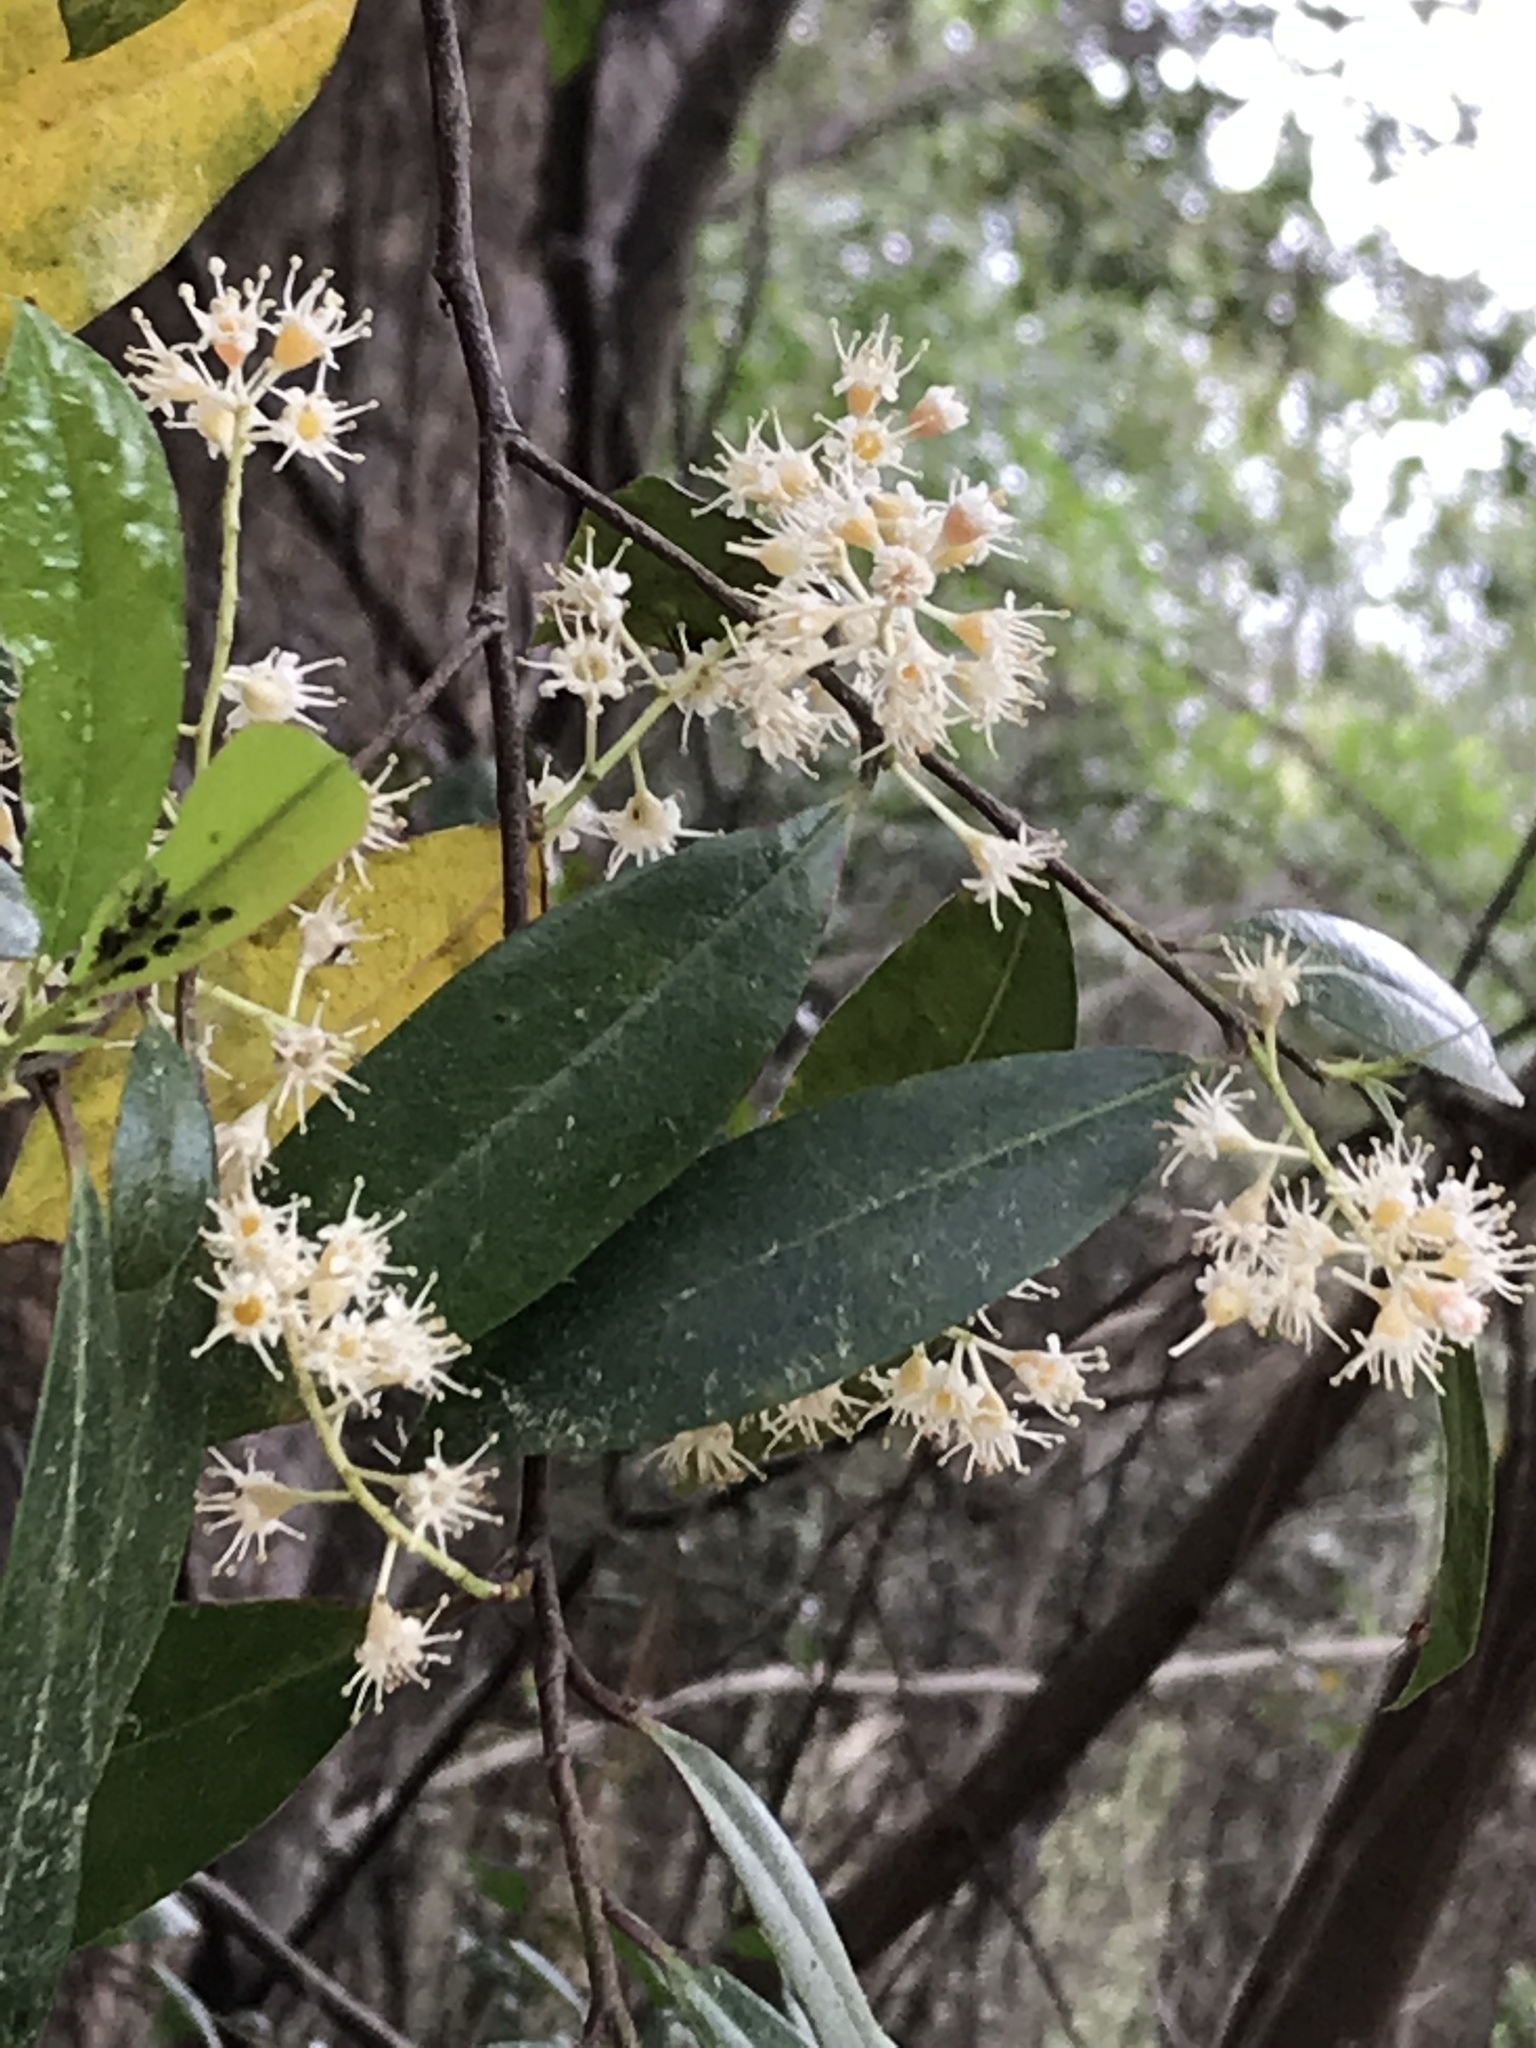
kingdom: Plantae
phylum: Tracheophyta
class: Magnoliopsida
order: Rosales
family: Rosaceae
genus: Prunus
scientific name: Prunus caroliniana
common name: Carolina laurel cherry
